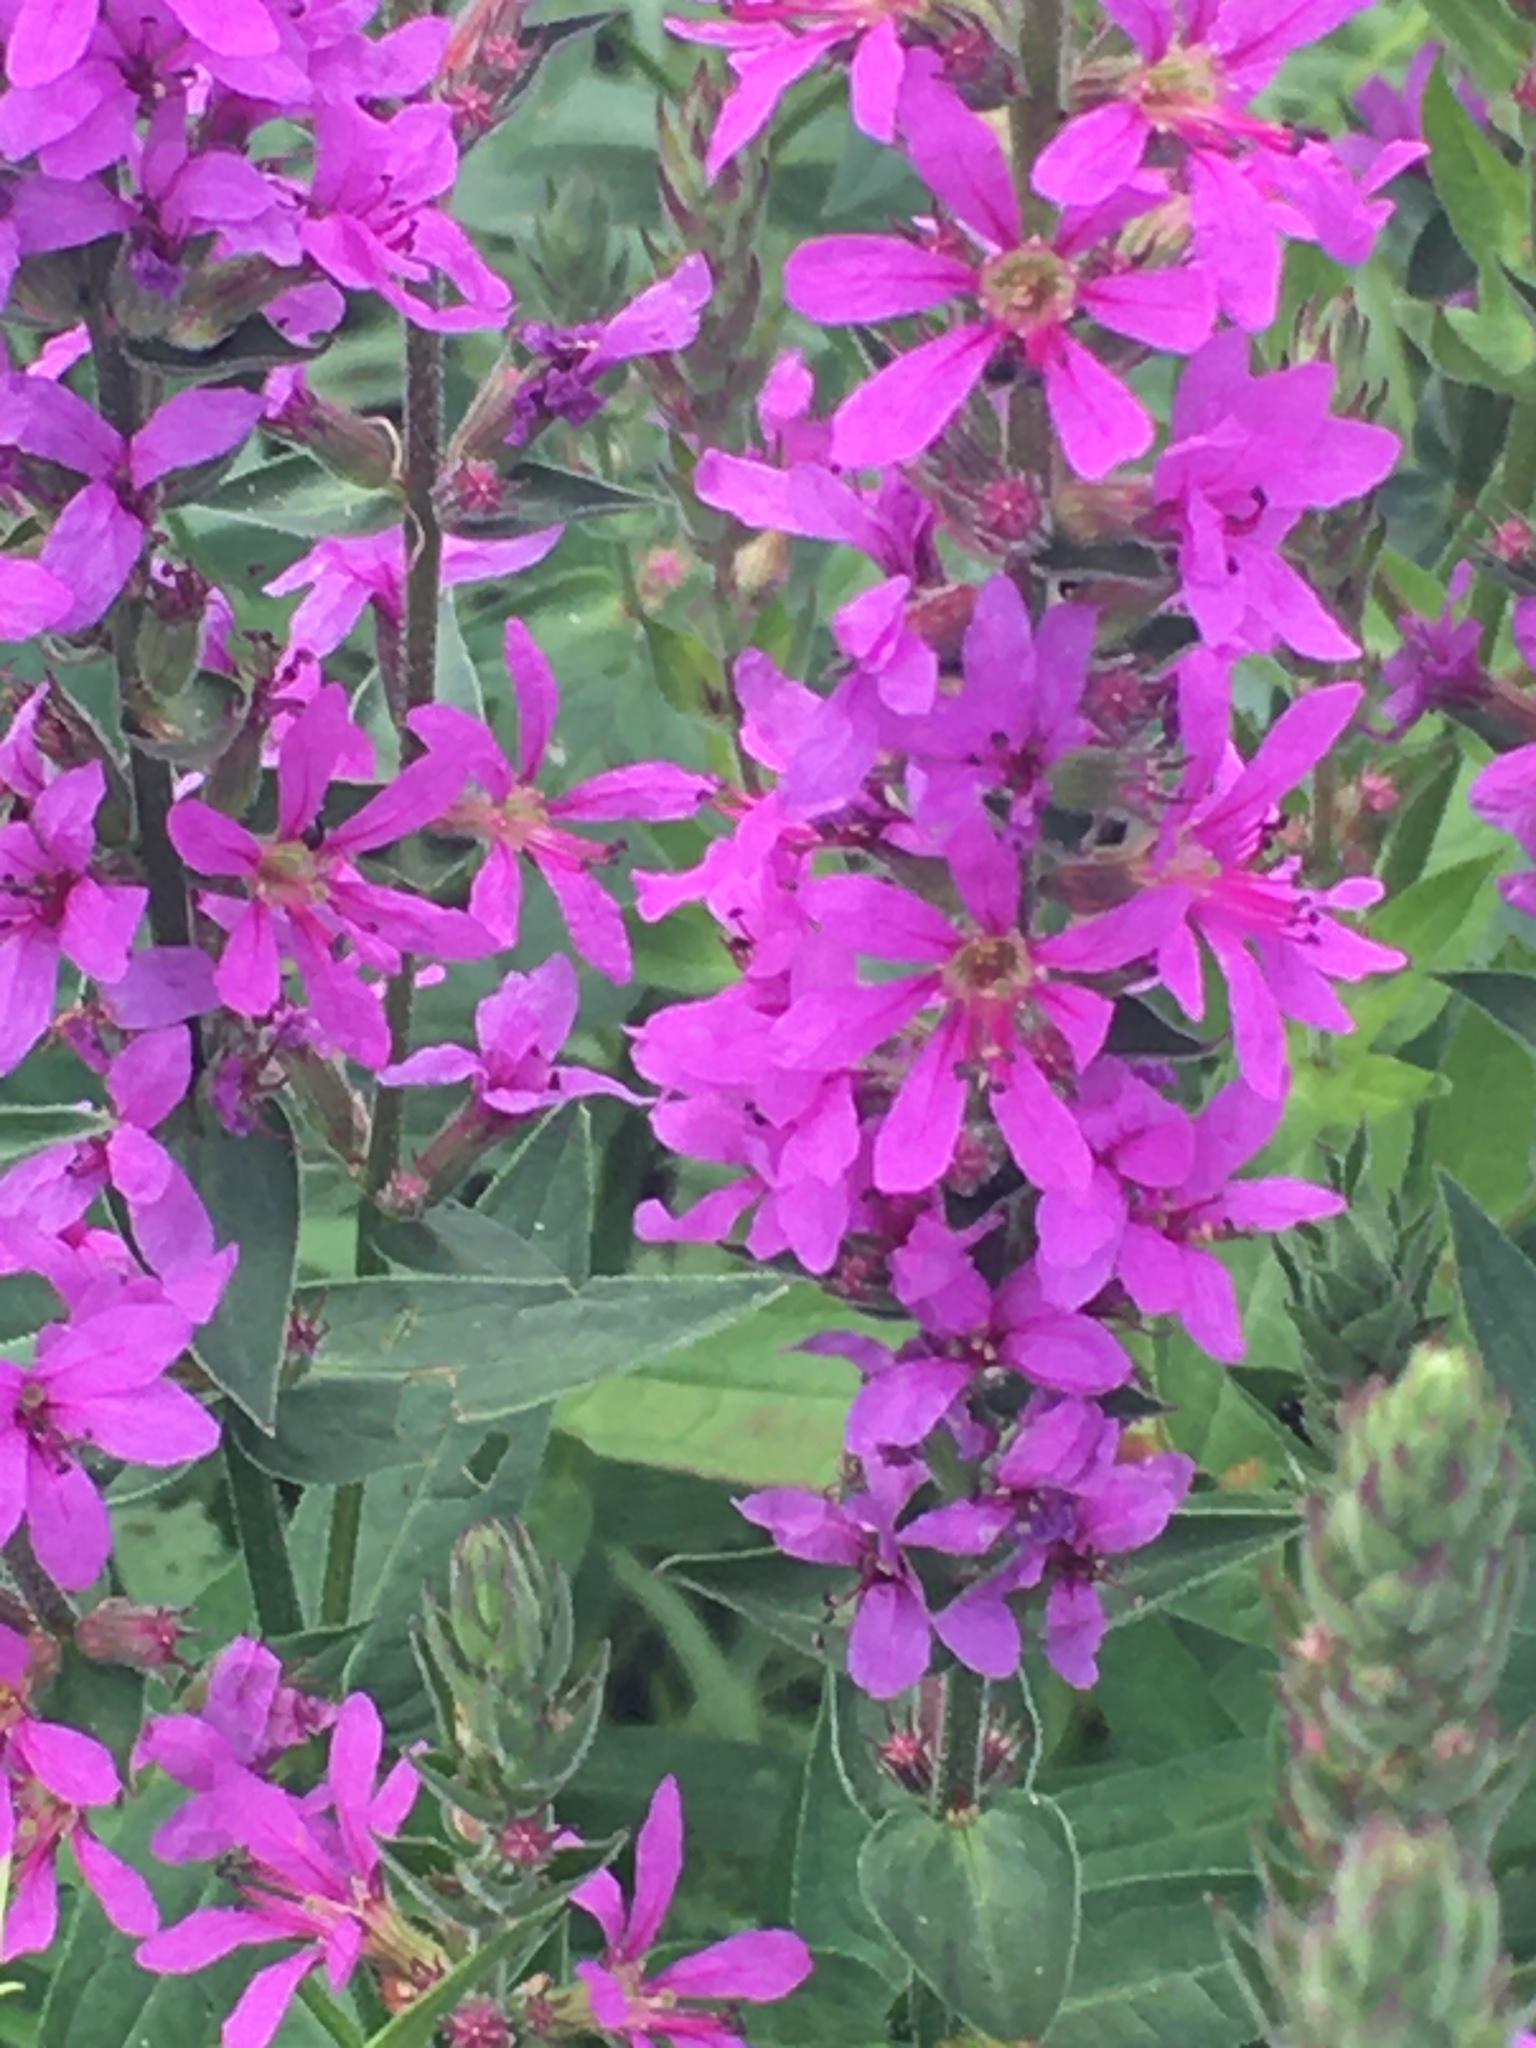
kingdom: Plantae
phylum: Tracheophyta
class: Magnoliopsida
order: Myrtales
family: Lythraceae
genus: Lythrum
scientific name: Lythrum salicaria
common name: Purple loosestrife
